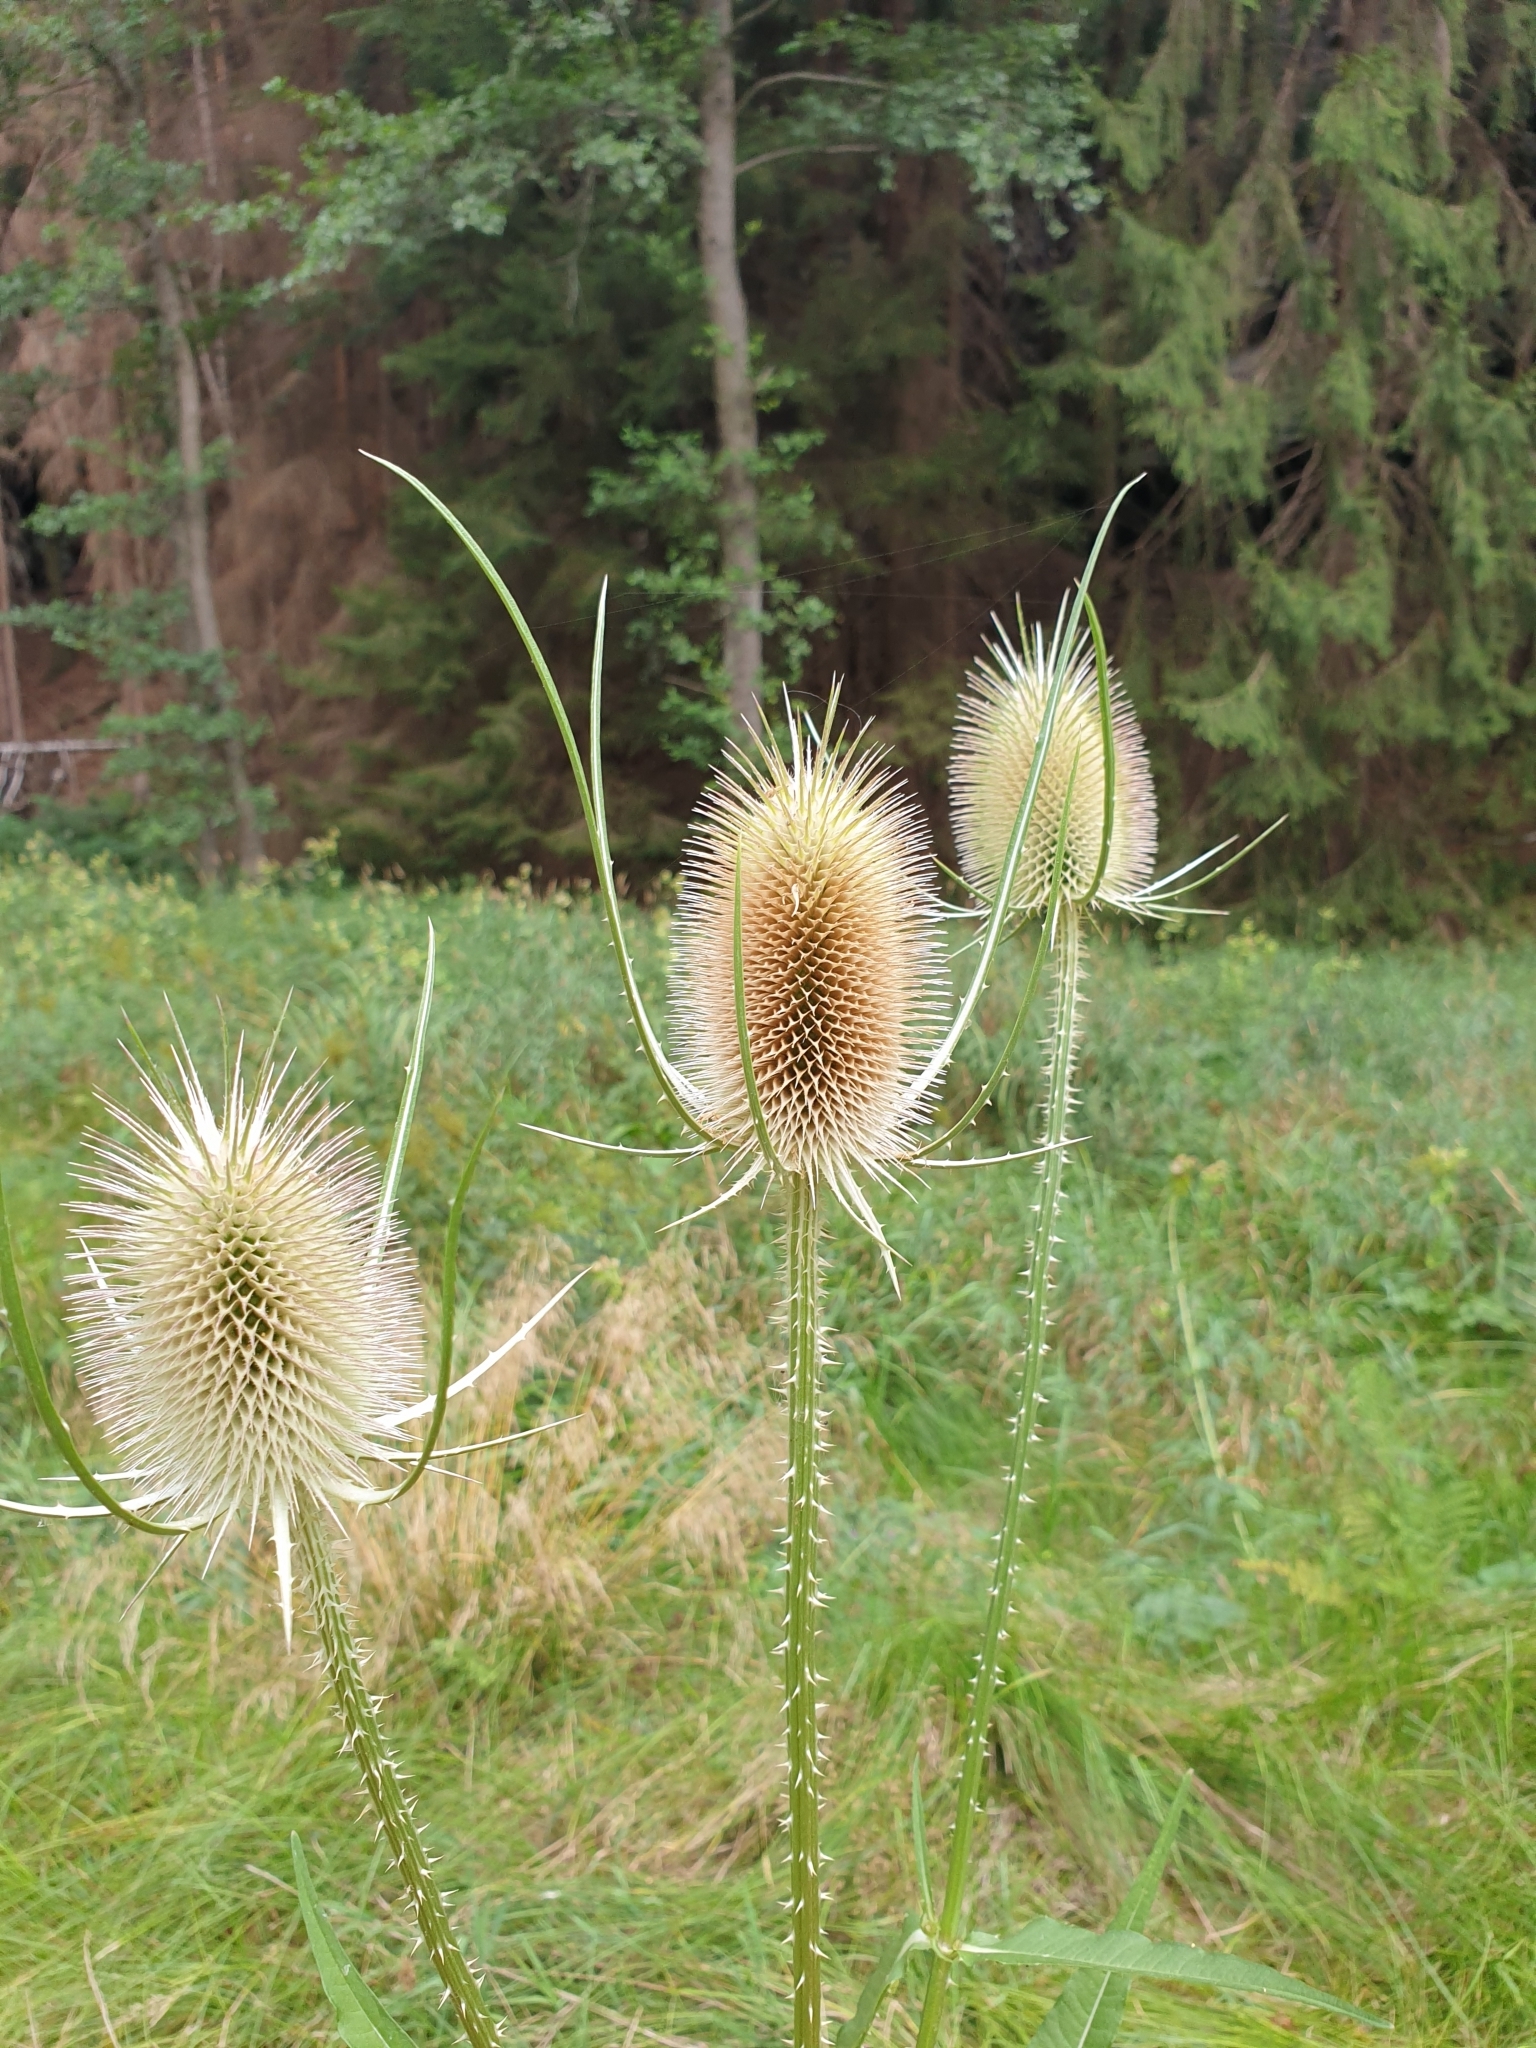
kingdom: Plantae
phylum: Tracheophyta
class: Magnoliopsida
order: Dipsacales
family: Caprifoliaceae
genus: Dipsacus
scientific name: Dipsacus fullonum
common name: Teasel
